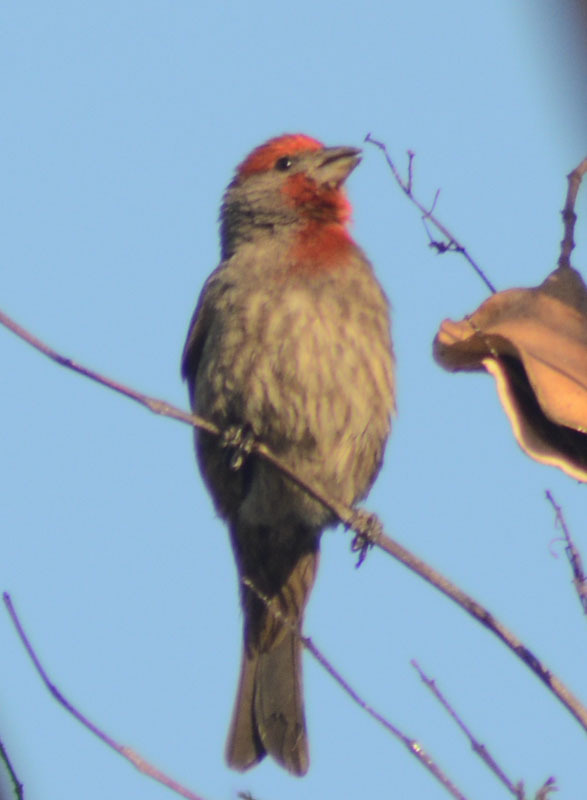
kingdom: Animalia
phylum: Chordata
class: Aves
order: Passeriformes
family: Fringillidae
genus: Haemorhous
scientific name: Haemorhous mexicanus
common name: House finch
